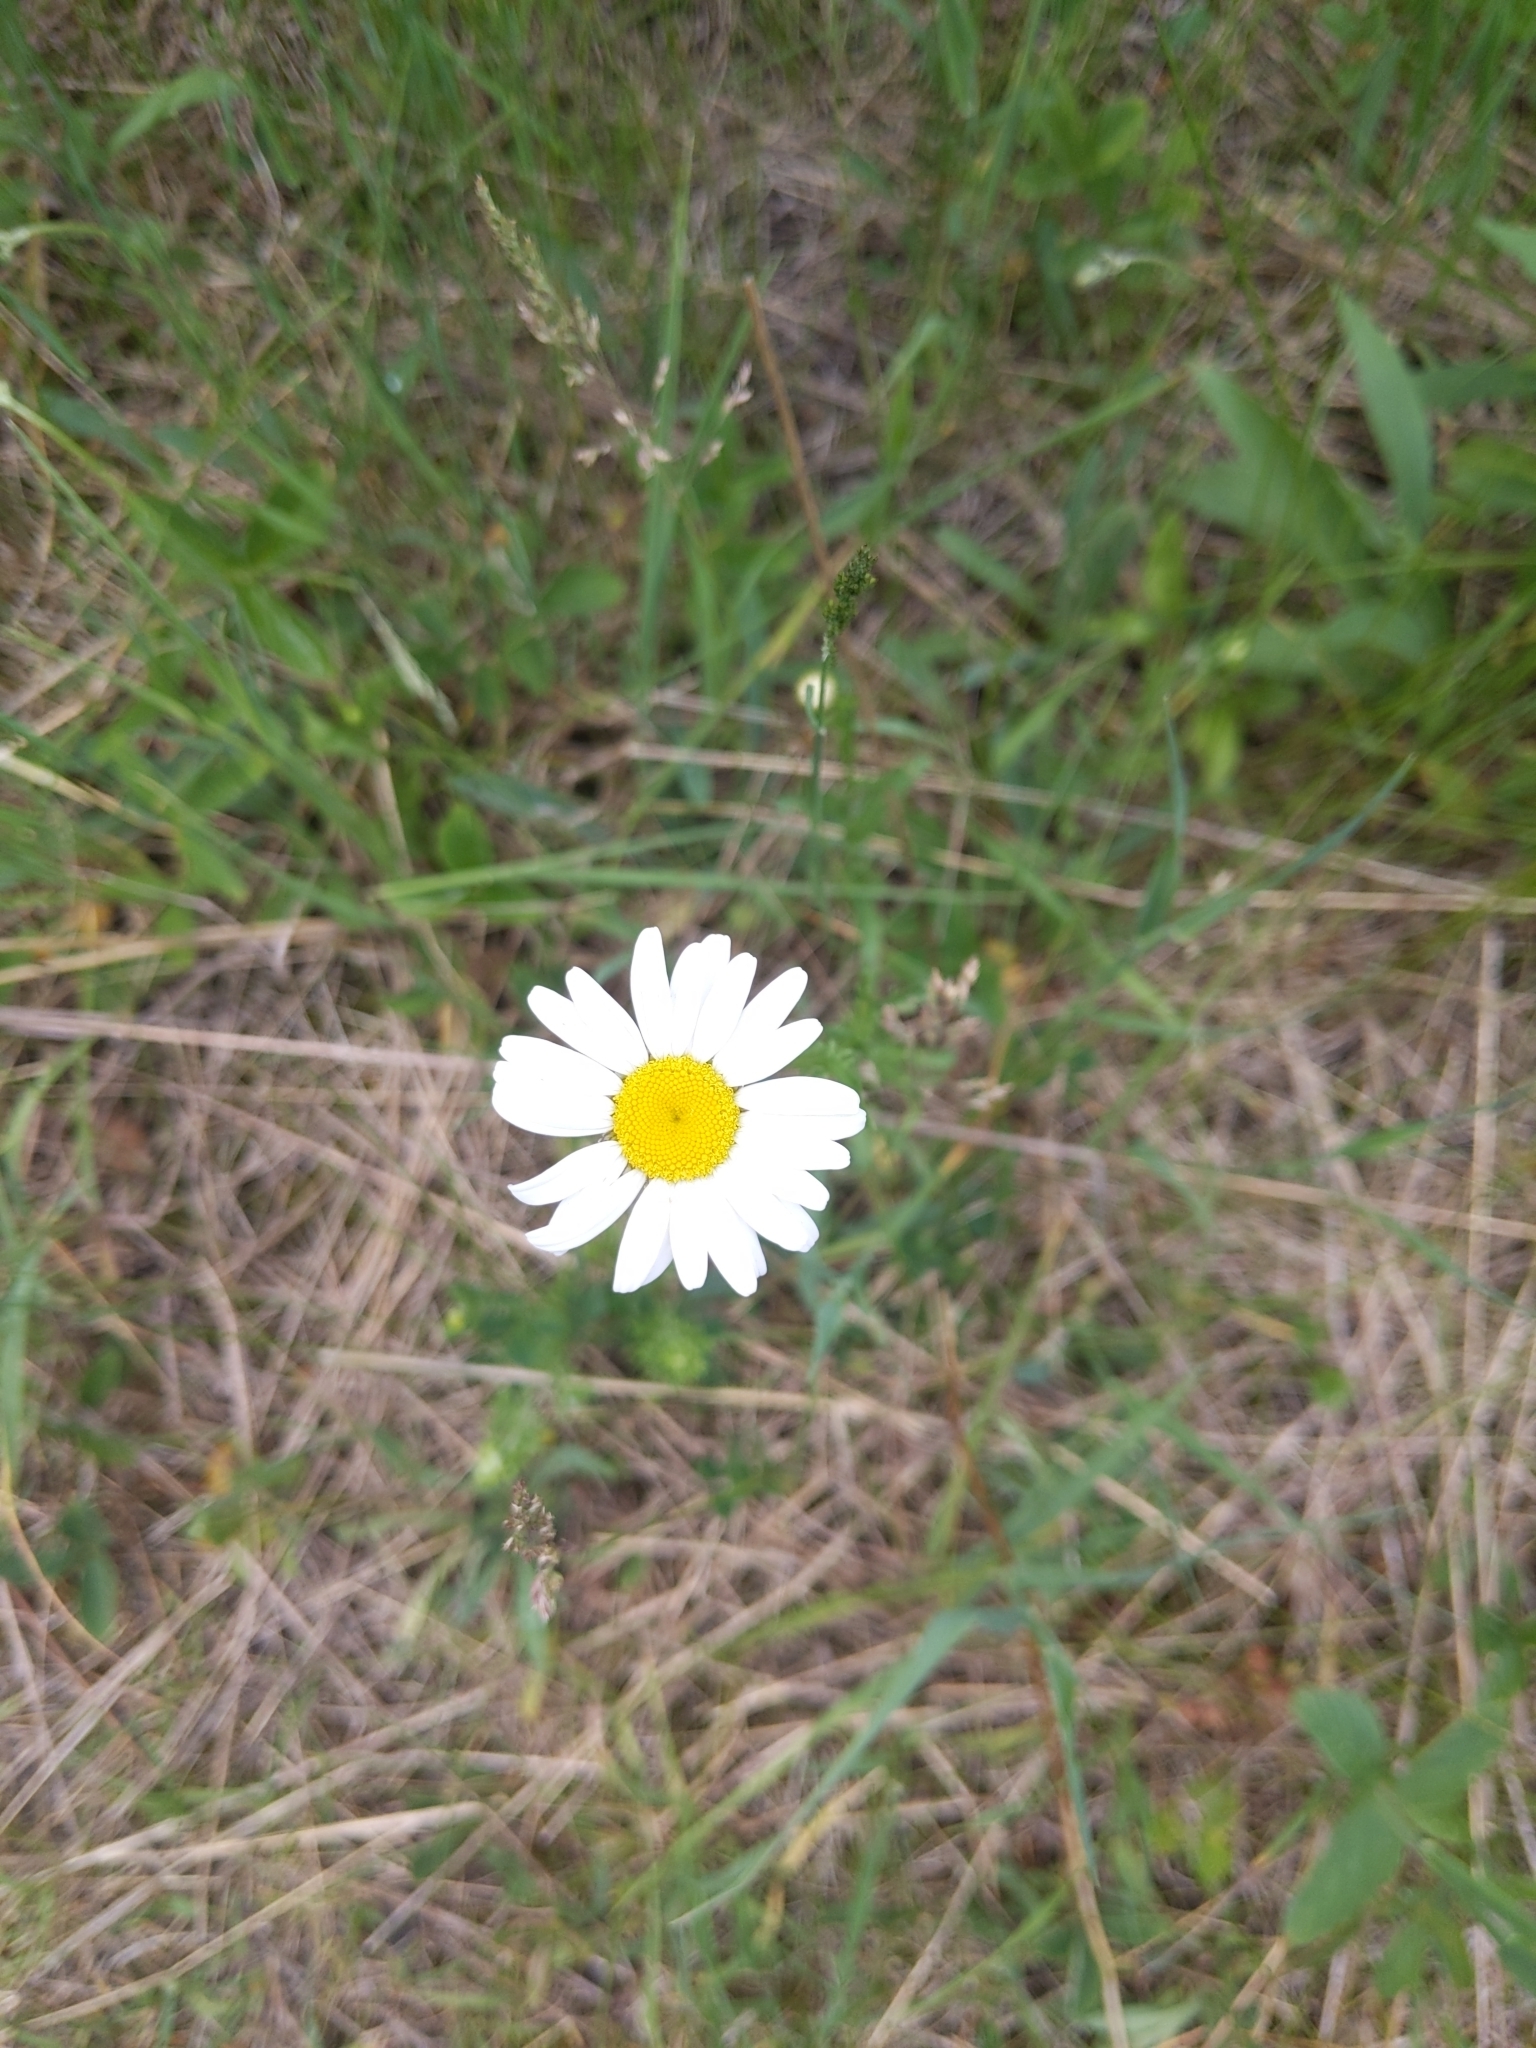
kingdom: Plantae
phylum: Tracheophyta
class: Magnoliopsida
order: Asterales
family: Asteraceae
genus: Leucanthemum
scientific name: Leucanthemum vulgare
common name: Oxeye daisy
